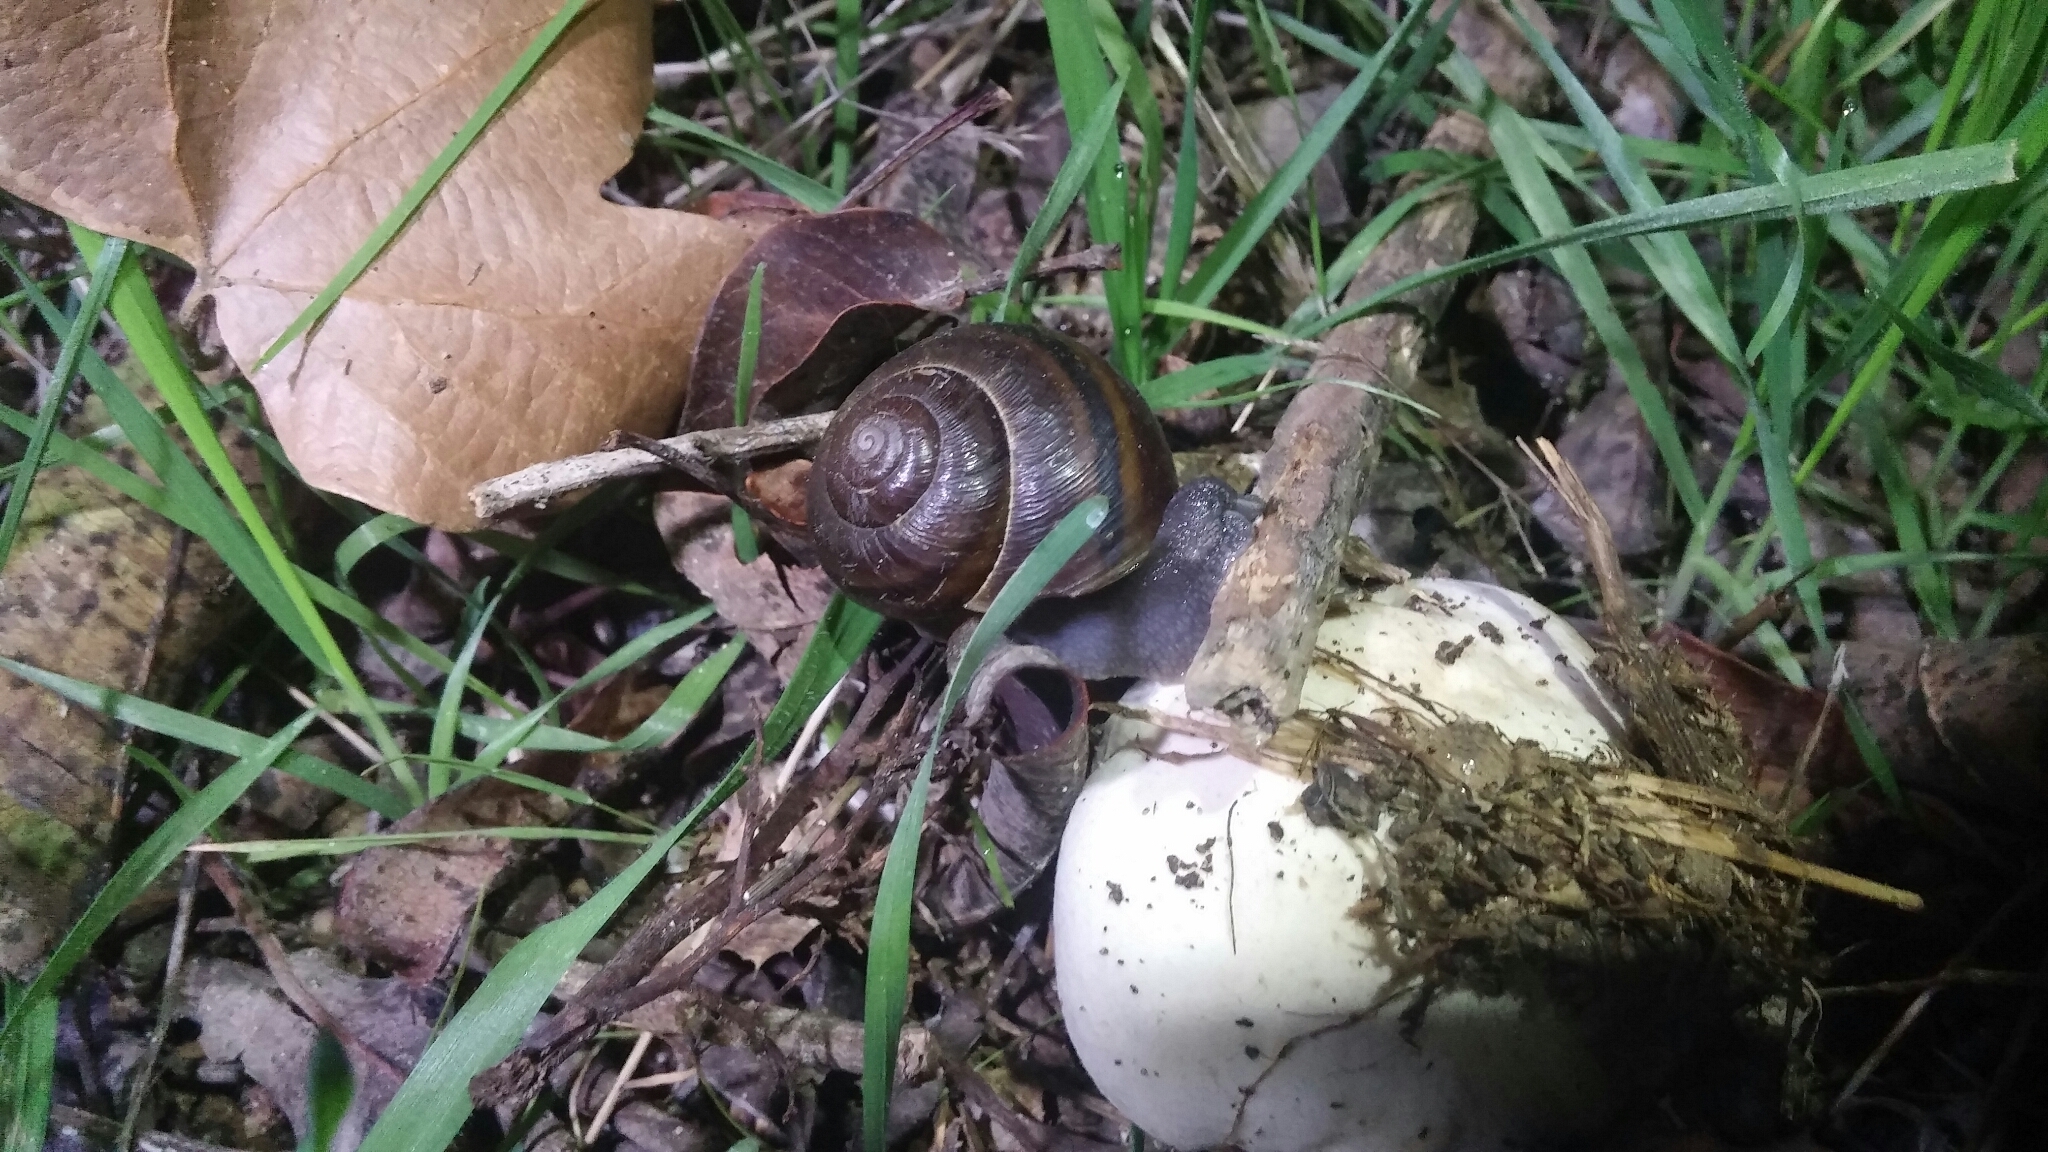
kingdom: Animalia
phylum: Mollusca
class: Gastropoda
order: Stylommatophora
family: Xanthonychidae
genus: Helminthoglypta
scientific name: Helminthoglypta tudiculata
